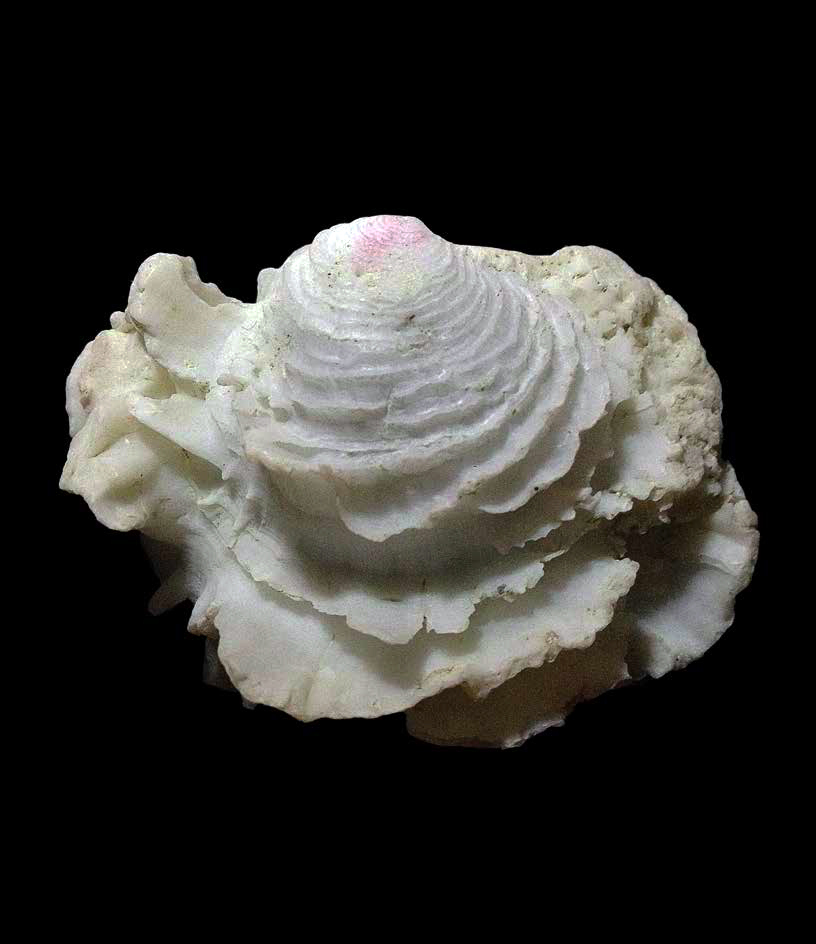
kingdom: Animalia
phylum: Mollusca
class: Bivalvia
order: Venerida
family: Chamidae
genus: Chama
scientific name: Chama circinata
